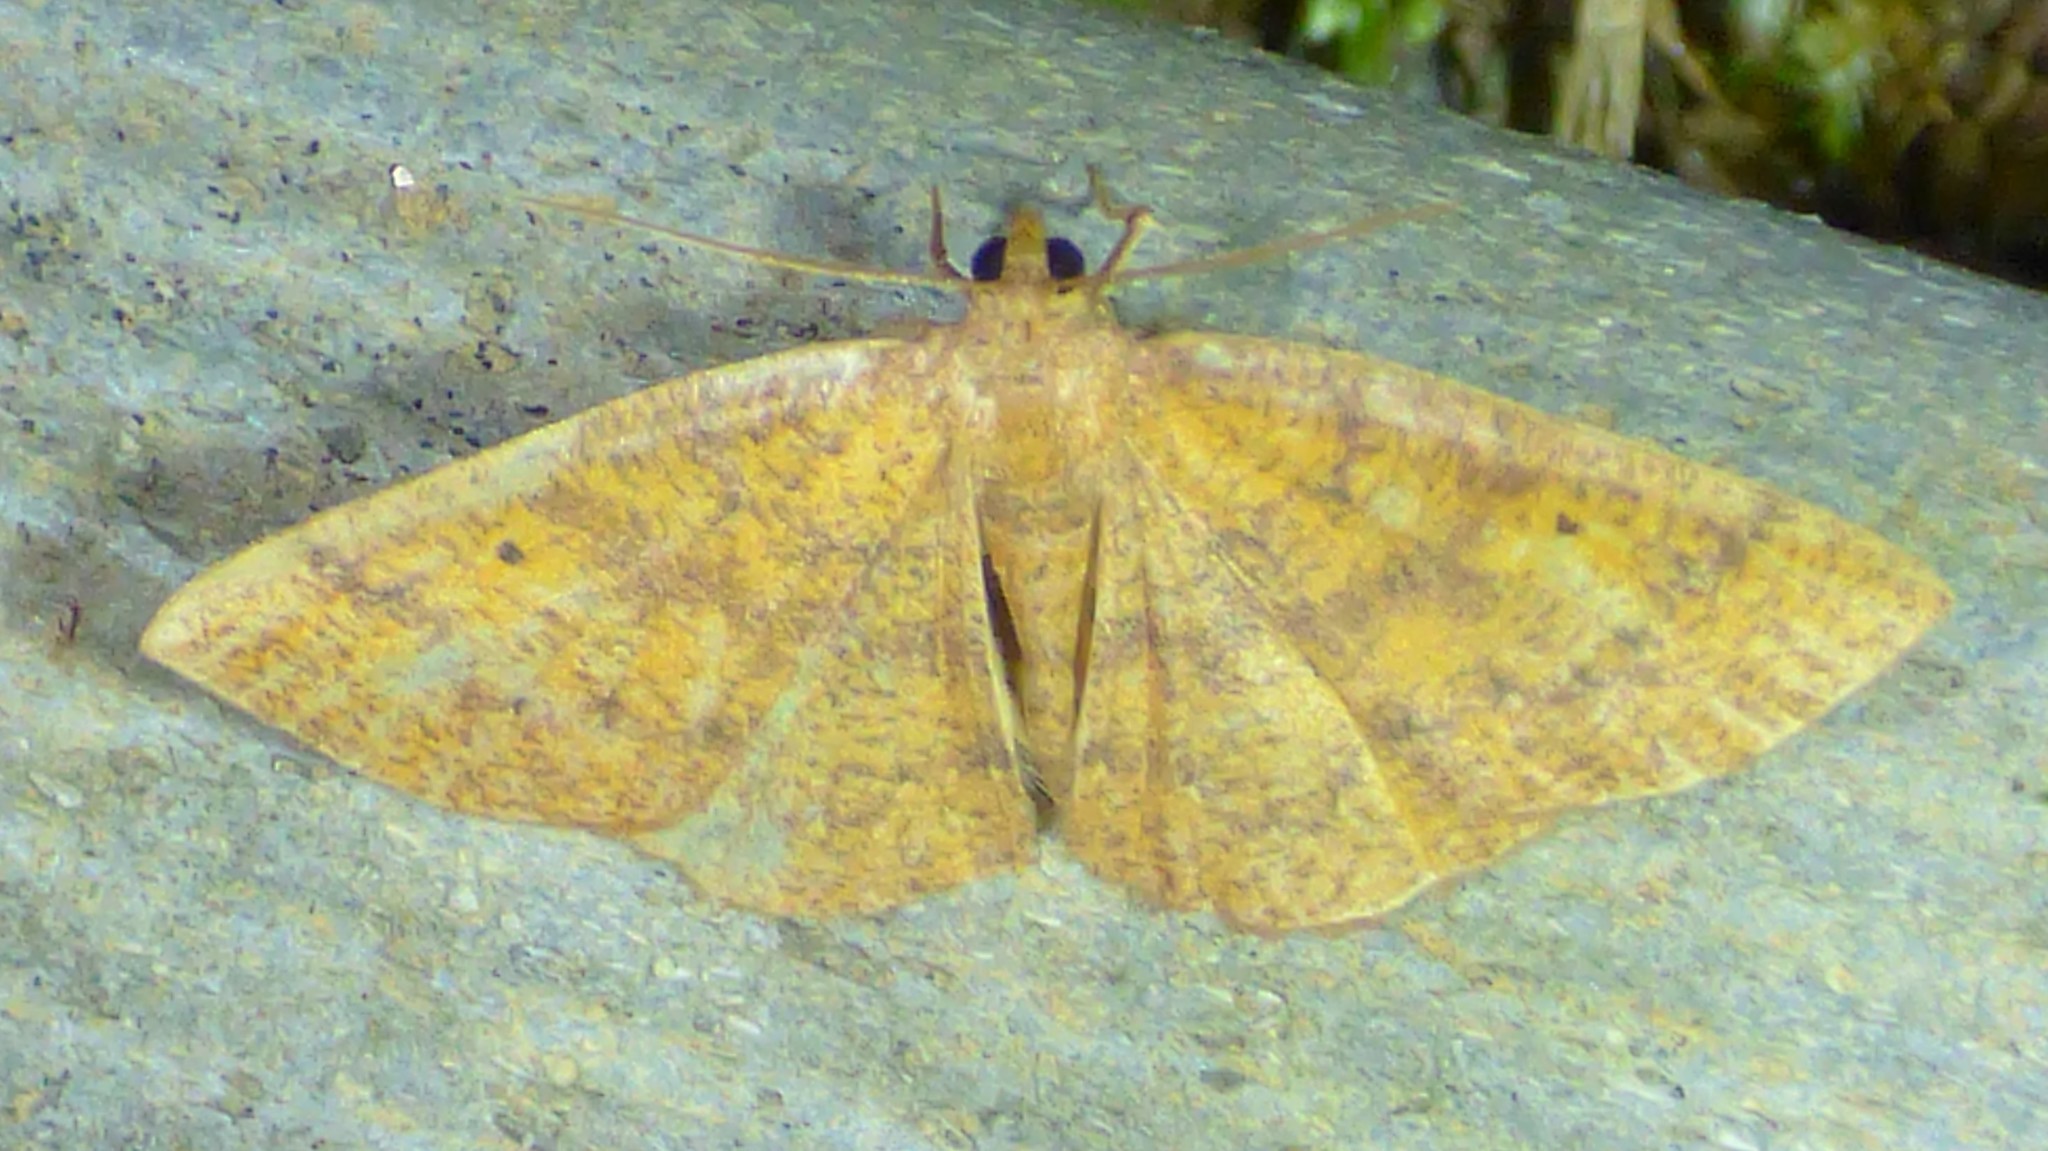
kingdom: Animalia
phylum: Arthropoda
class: Insecta
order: Lepidoptera
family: Geometridae
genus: Ilexia
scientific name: Ilexia intractata
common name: Black-dotted ruddy moth
